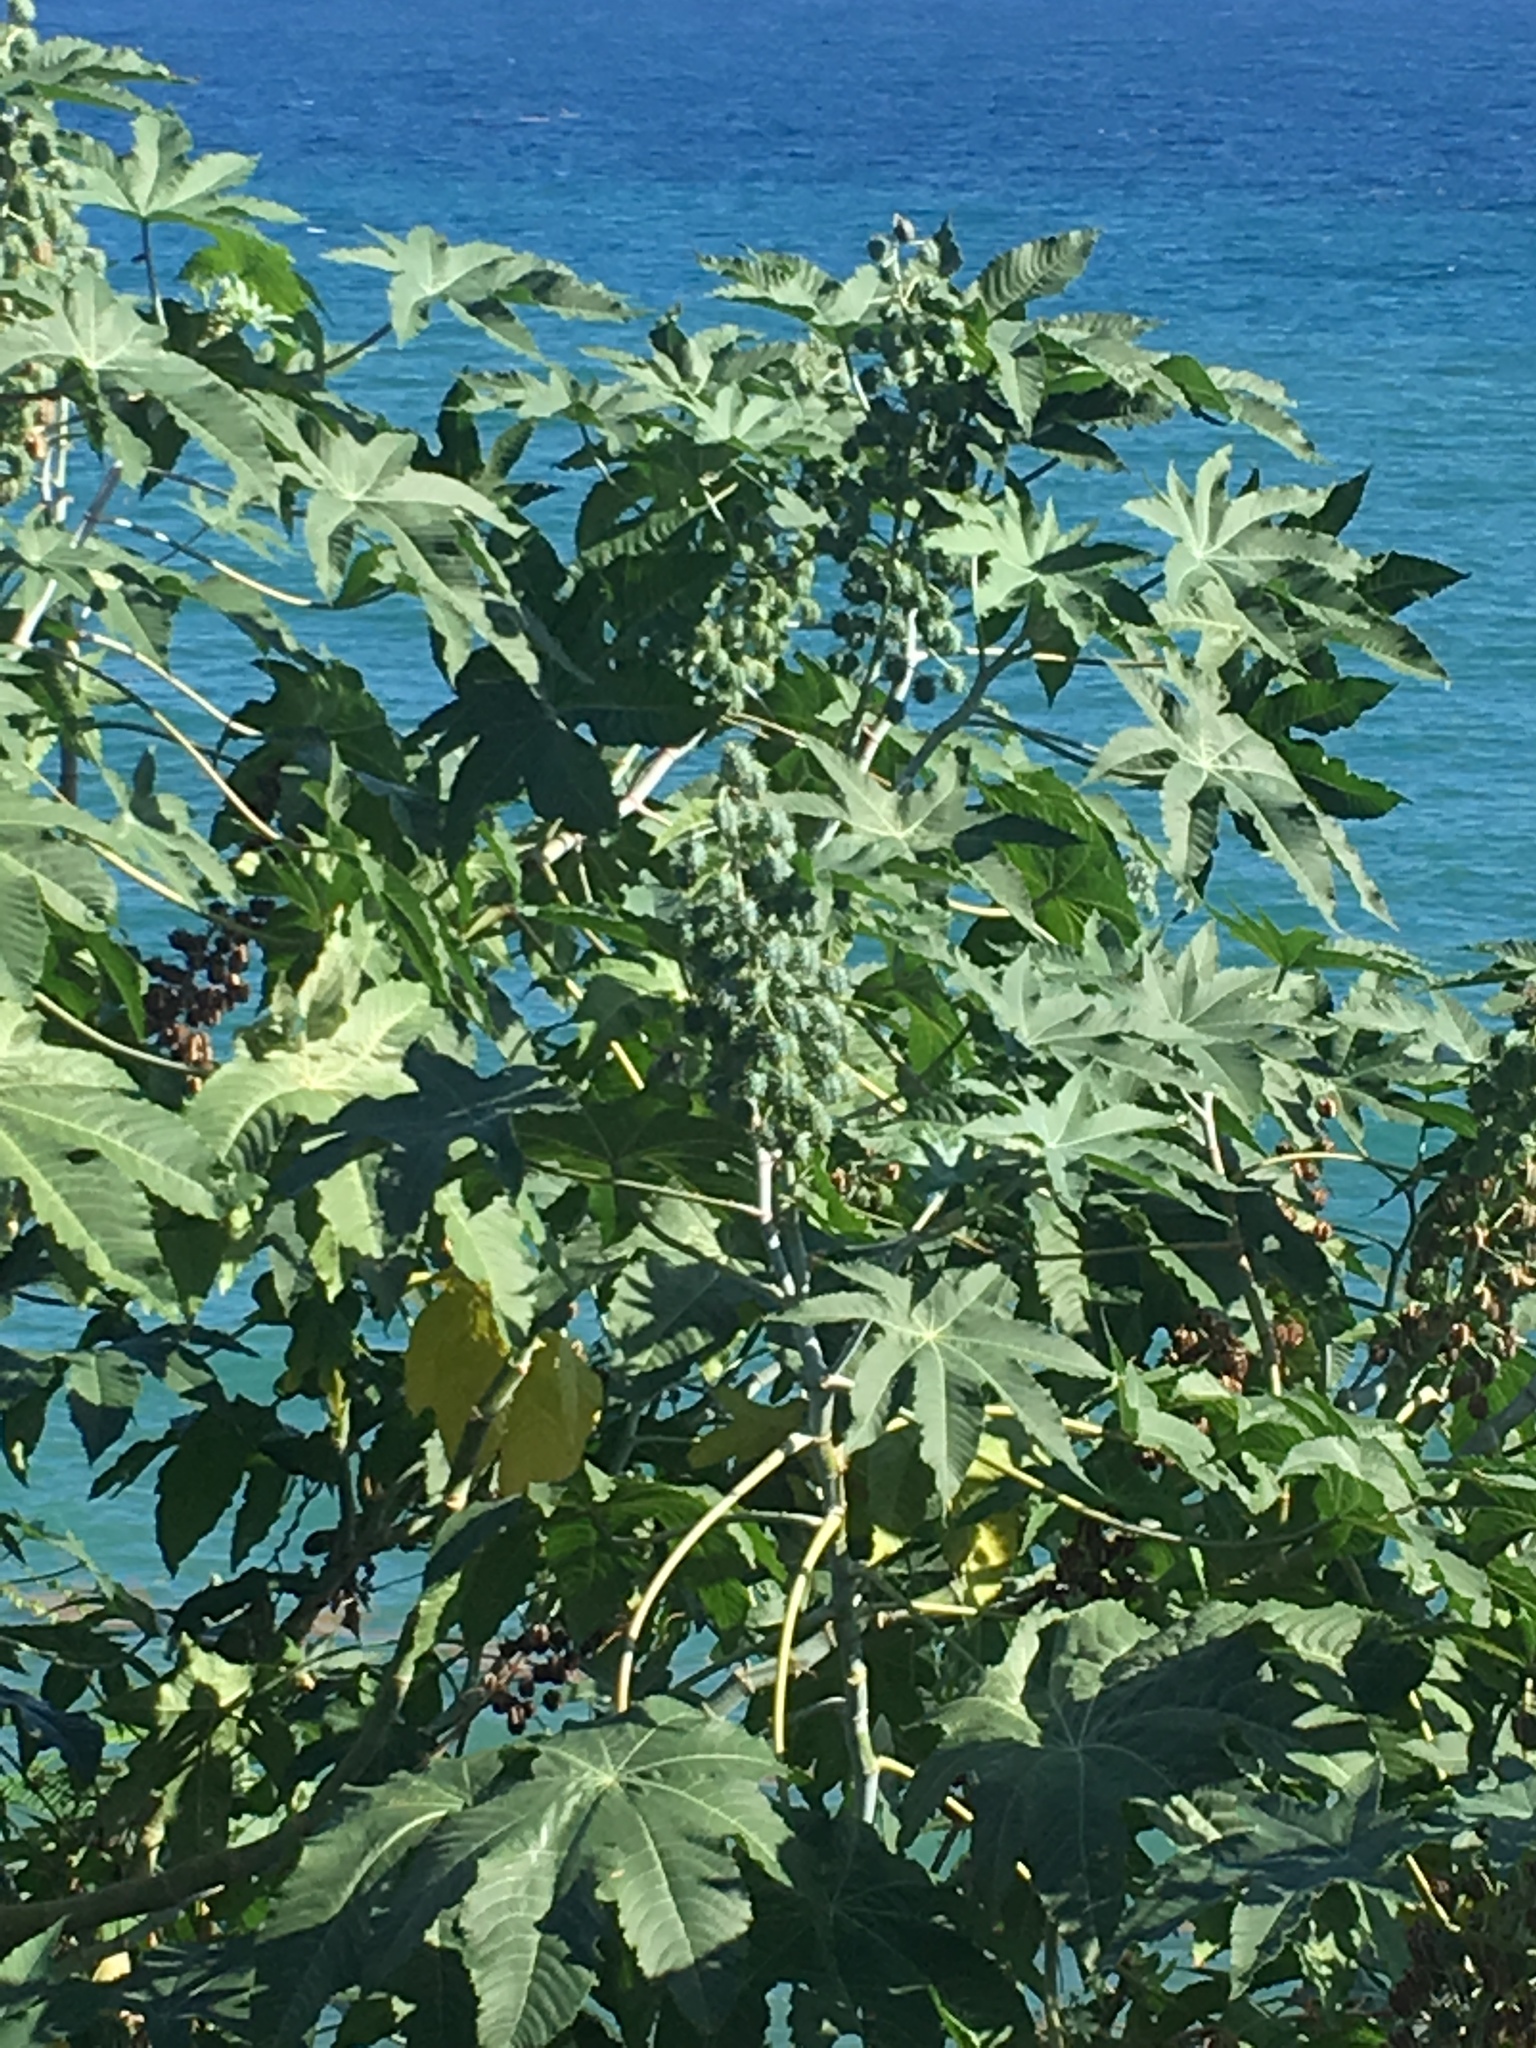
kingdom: Plantae
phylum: Tracheophyta
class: Magnoliopsida
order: Malpighiales
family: Euphorbiaceae
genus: Ricinus
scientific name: Ricinus communis
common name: Castor-oil-plant
